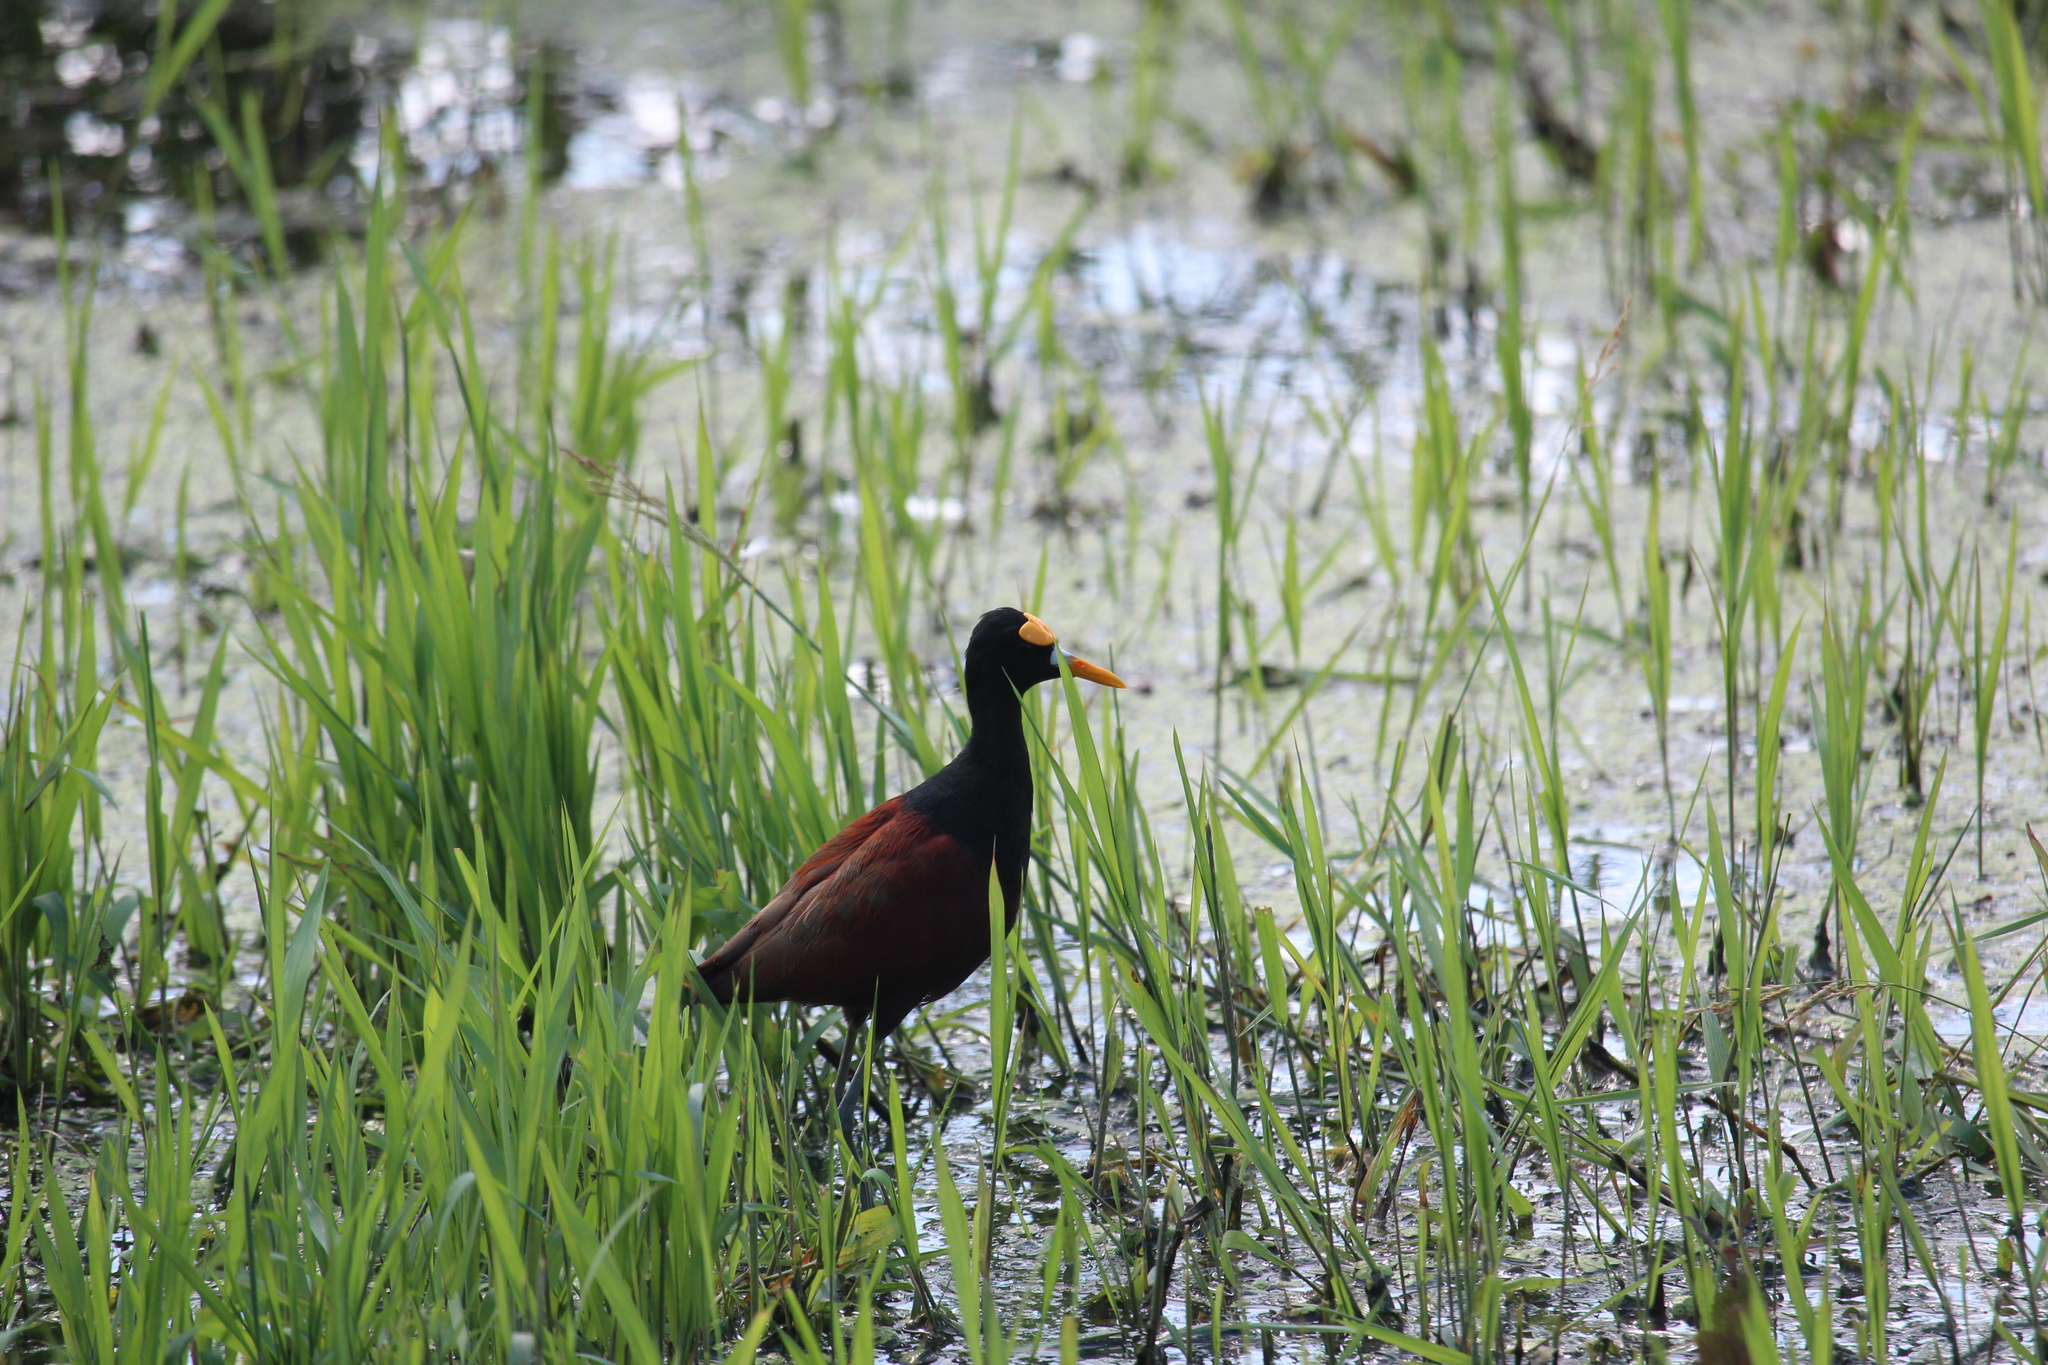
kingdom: Animalia
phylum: Chordata
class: Aves
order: Charadriiformes
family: Jacanidae
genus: Jacana
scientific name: Jacana spinosa
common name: Northern jacana
